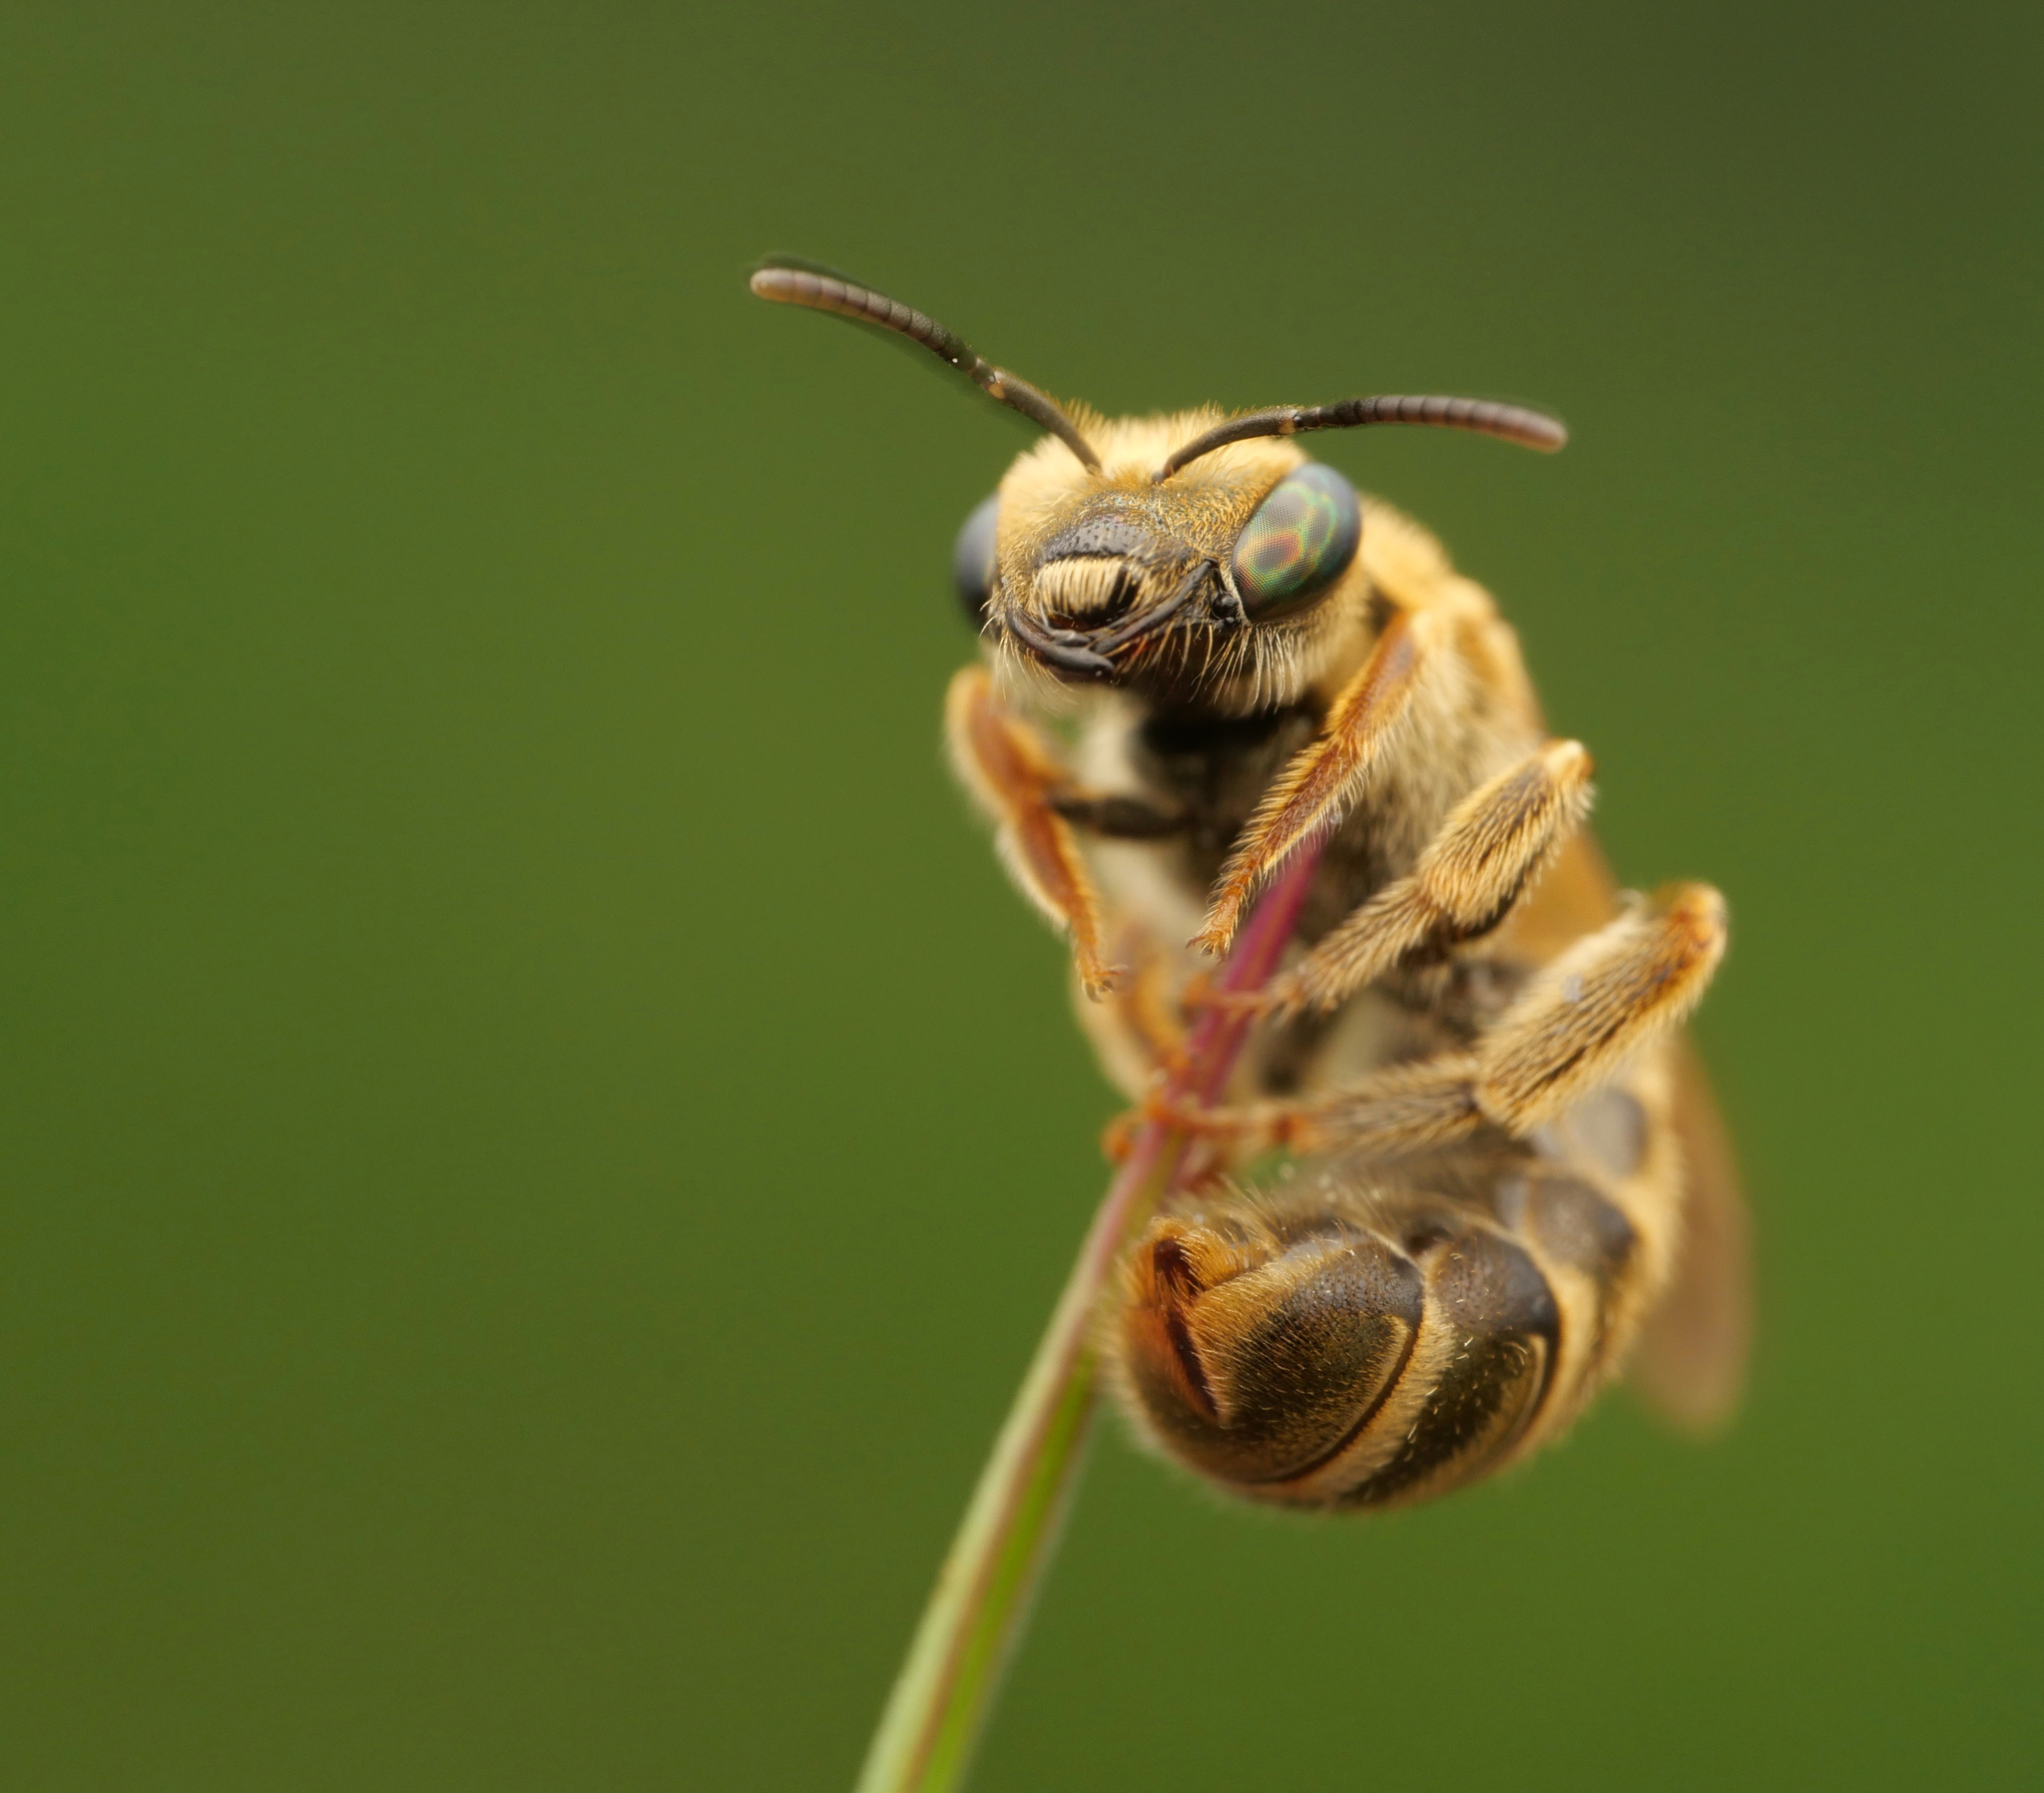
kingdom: Animalia
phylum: Arthropoda
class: Insecta
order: Hymenoptera
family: Halictidae
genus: Halictus
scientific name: Halictus subauratus
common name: Golden furrow bee
